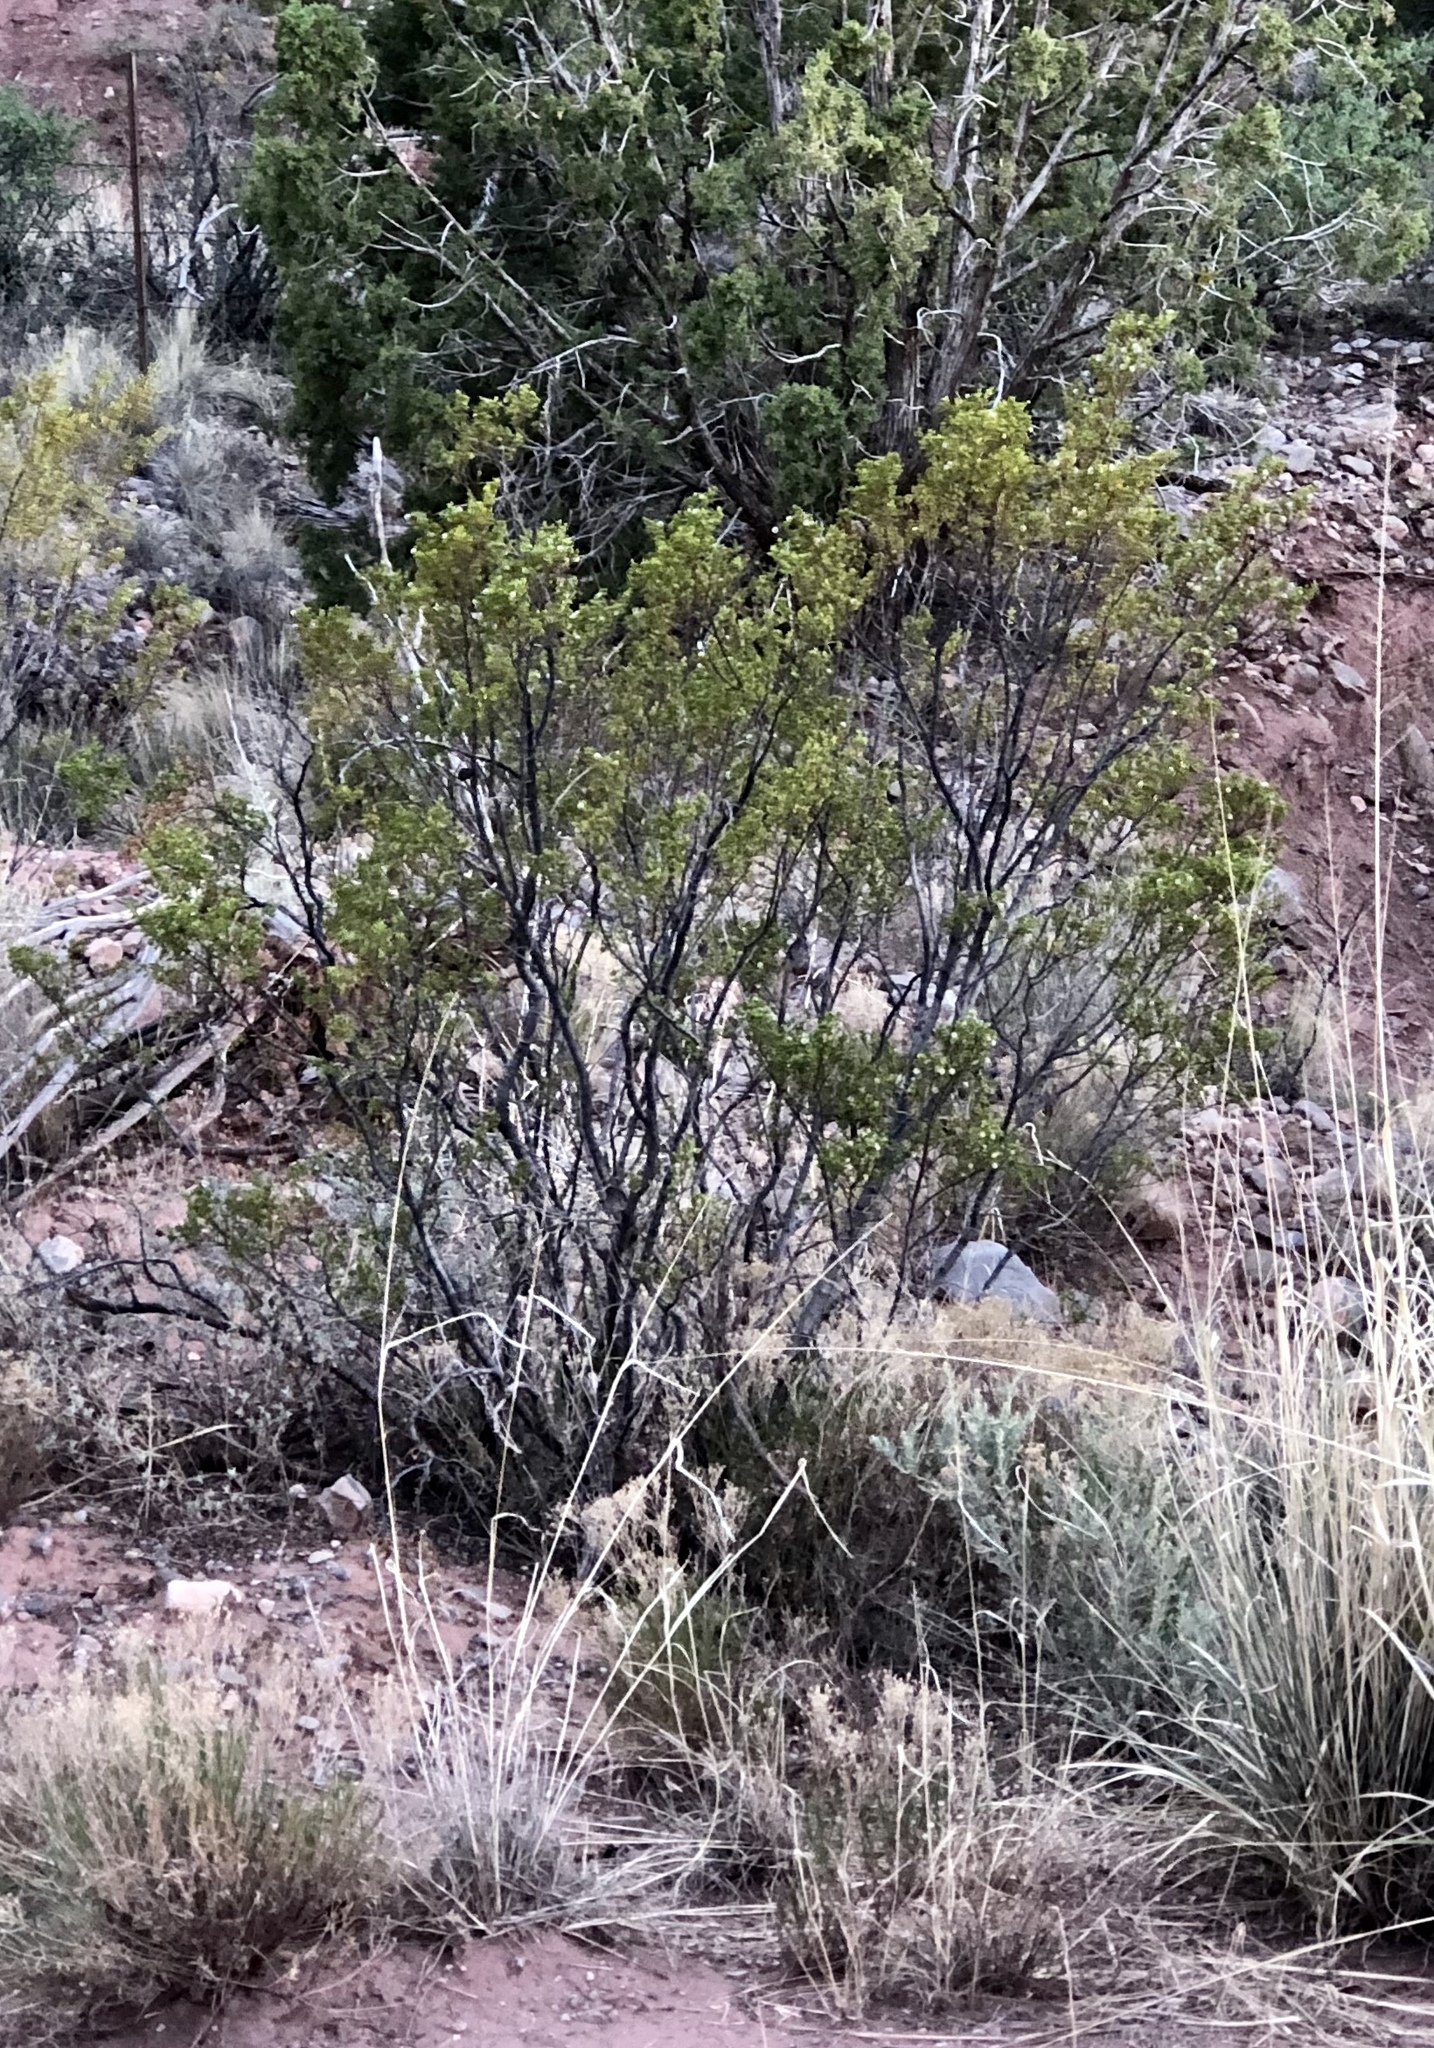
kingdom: Plantae
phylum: Tracheophyta
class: Magnoliopsida
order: Zygophyllales
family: Zygophyllaceae
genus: Larrea
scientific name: Larrea tridentata
